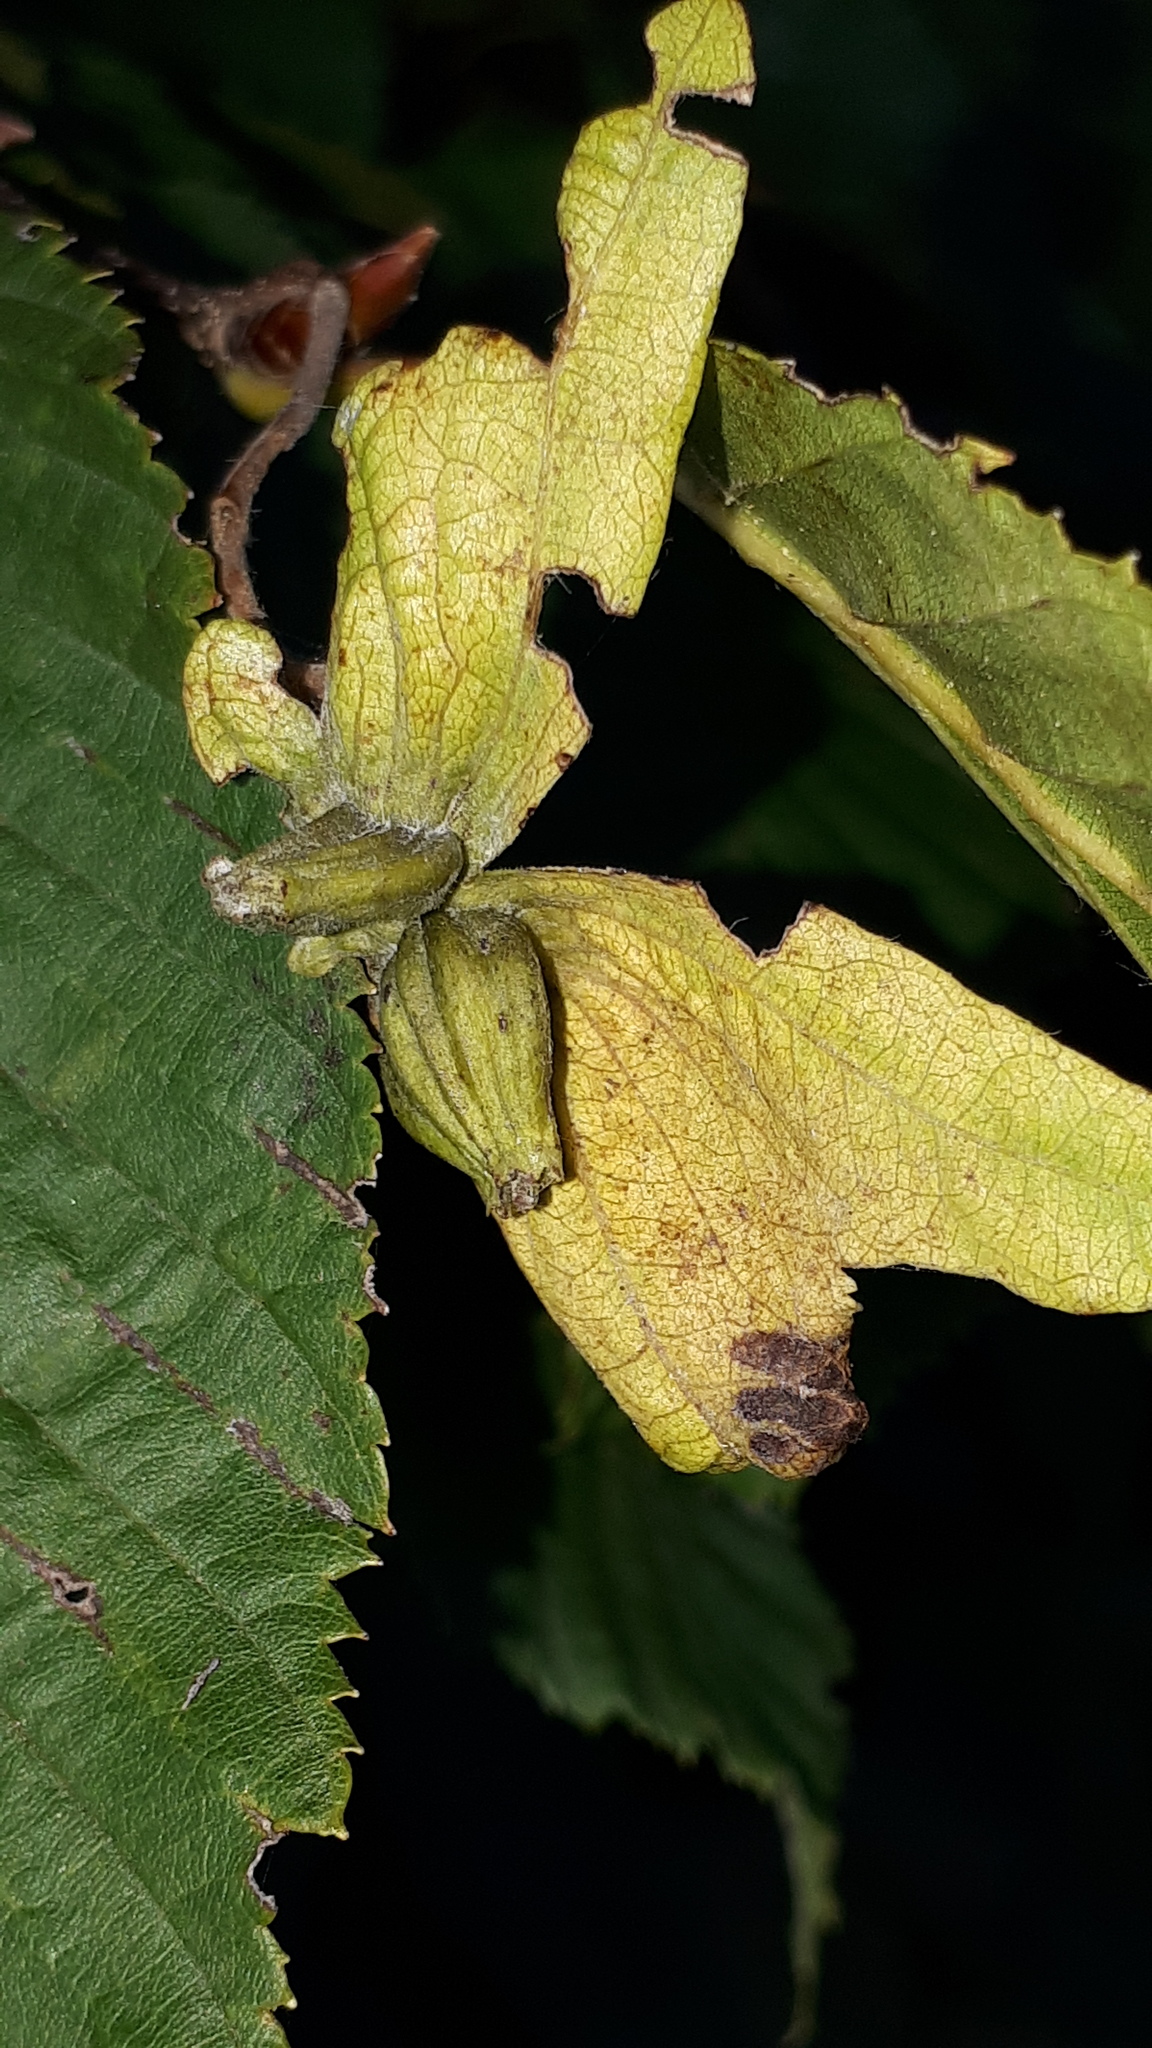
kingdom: Plantae
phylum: Tracheophyta
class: Magnoliopsida
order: Fagales
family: Betulaceae
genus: Carpinus
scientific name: Carpinus betulus
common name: Hornbeam
